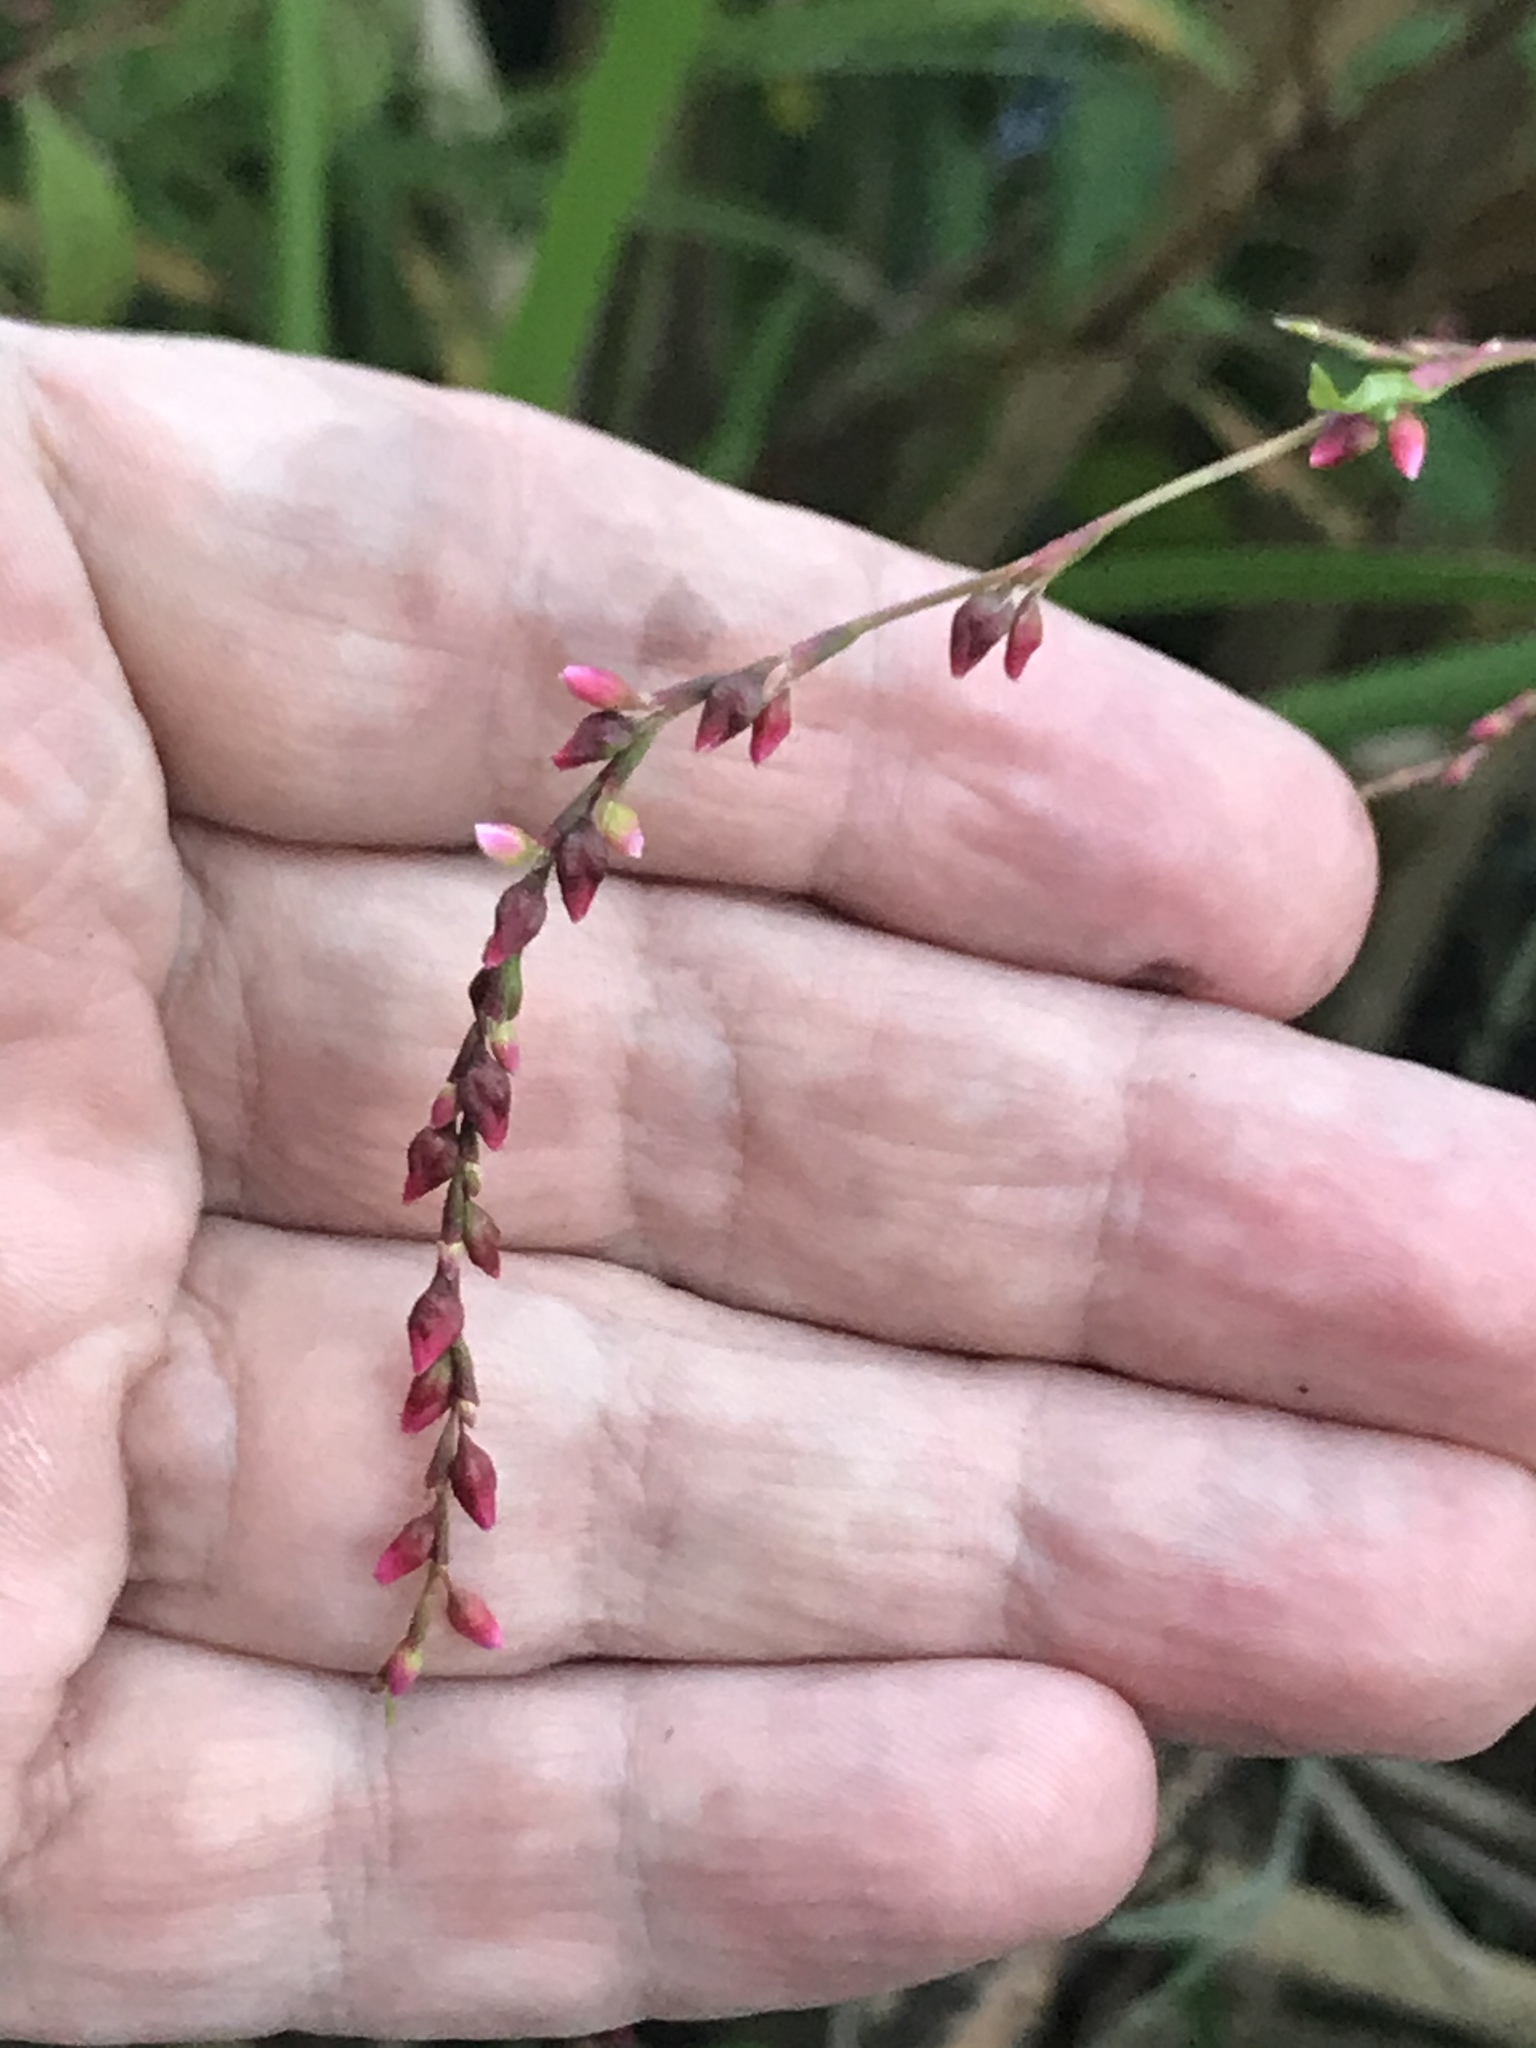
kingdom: Plantae
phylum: Tracheophyta
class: Magnoliopsida
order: Caryophyllales
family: Polygonaceae
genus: Persicaria
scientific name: Persicaria hydropiper
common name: Water-pepper
